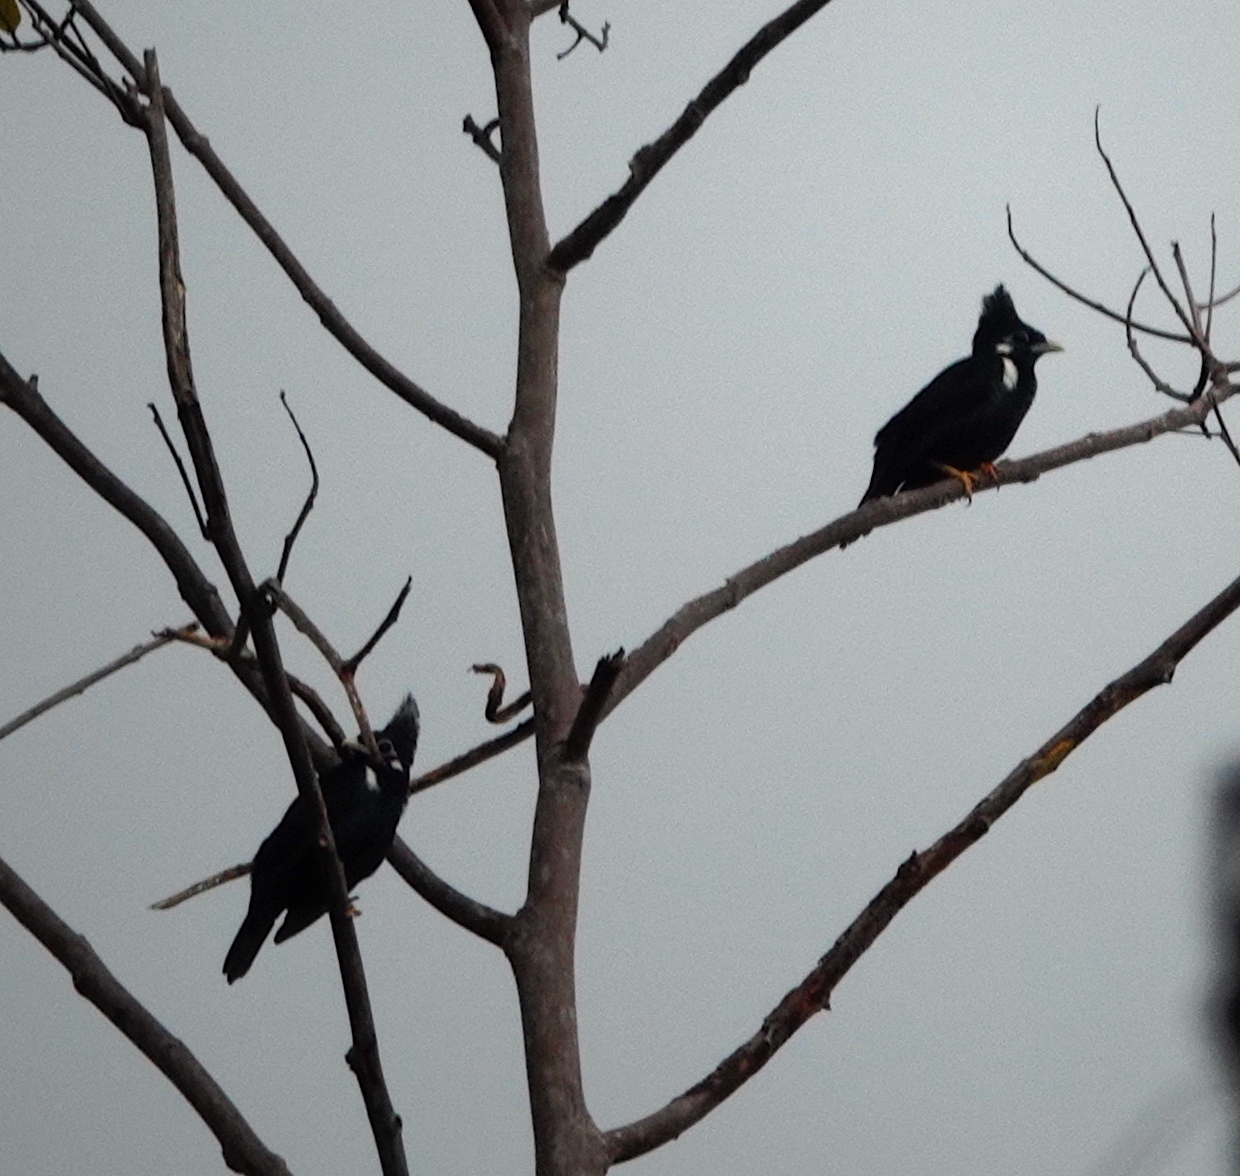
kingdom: Animalia
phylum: Chordata
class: Aves
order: Passeriformes
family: Sturnidae
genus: Basilornis
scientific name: Basilornis corythaix
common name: Long-crested myna
